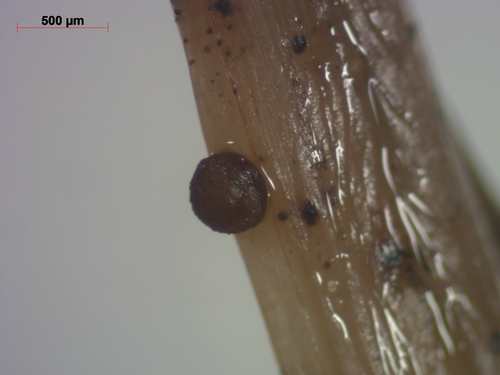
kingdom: Fungi
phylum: Ascomycota
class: Leotiomycetes
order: Helotiales
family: Mollisiaceae
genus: Niptera
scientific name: Niptera
